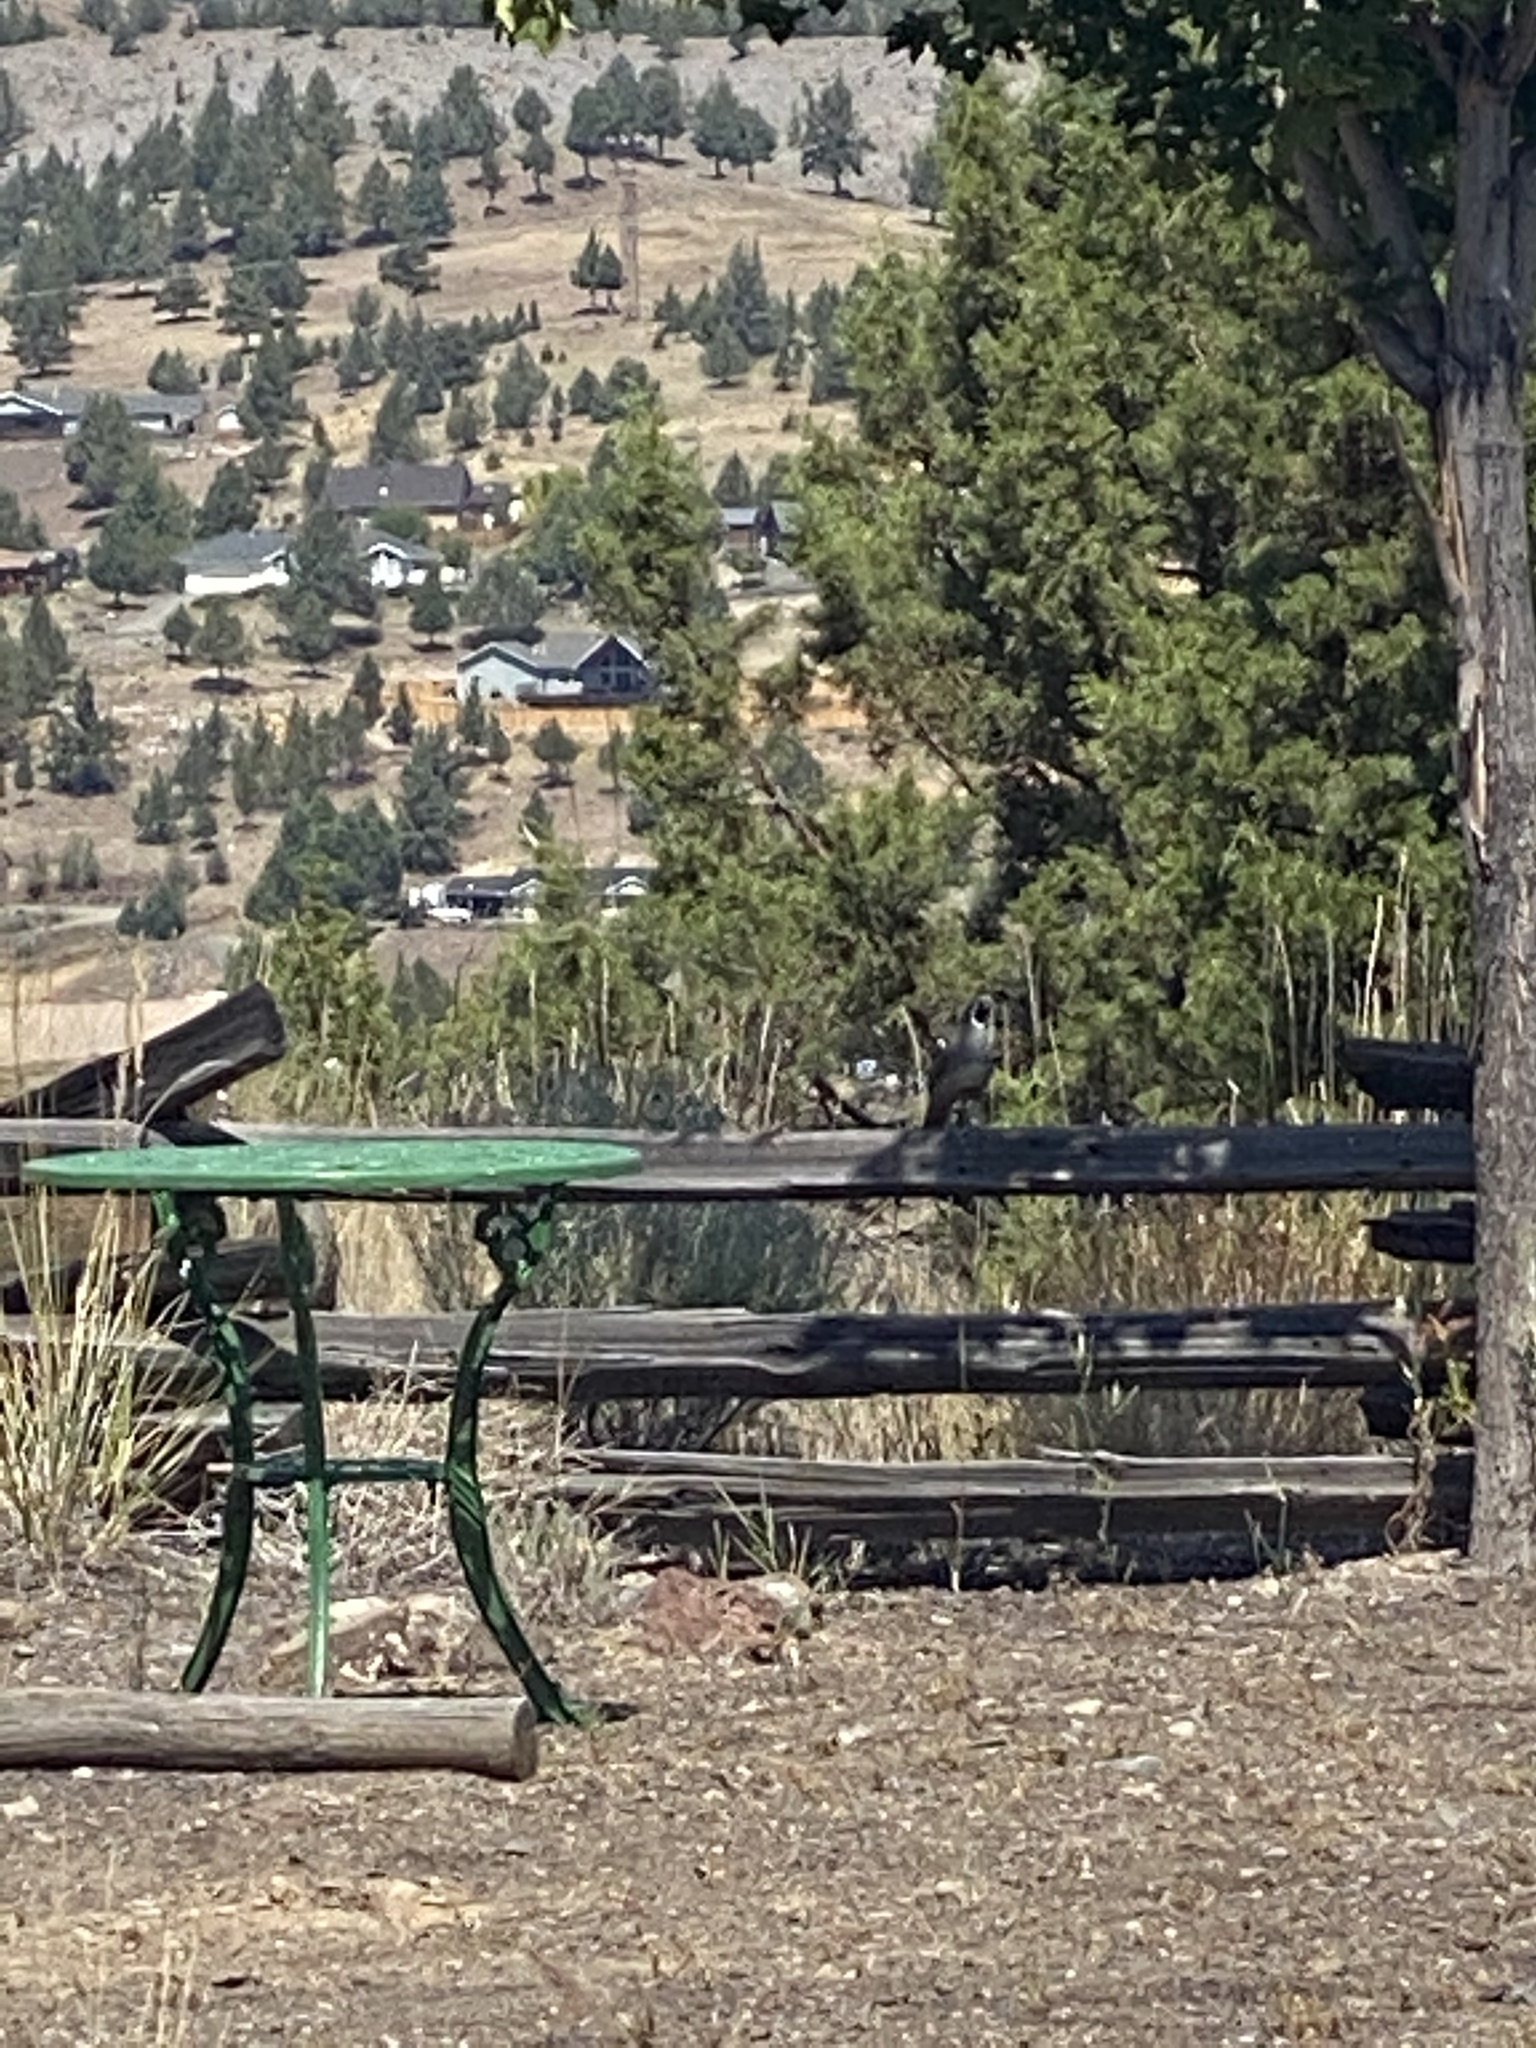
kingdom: Animalia
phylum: Chordata
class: Aves
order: Galliformes
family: Odontophoridae
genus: Callipepla
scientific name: Callipepla californica
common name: California quail
